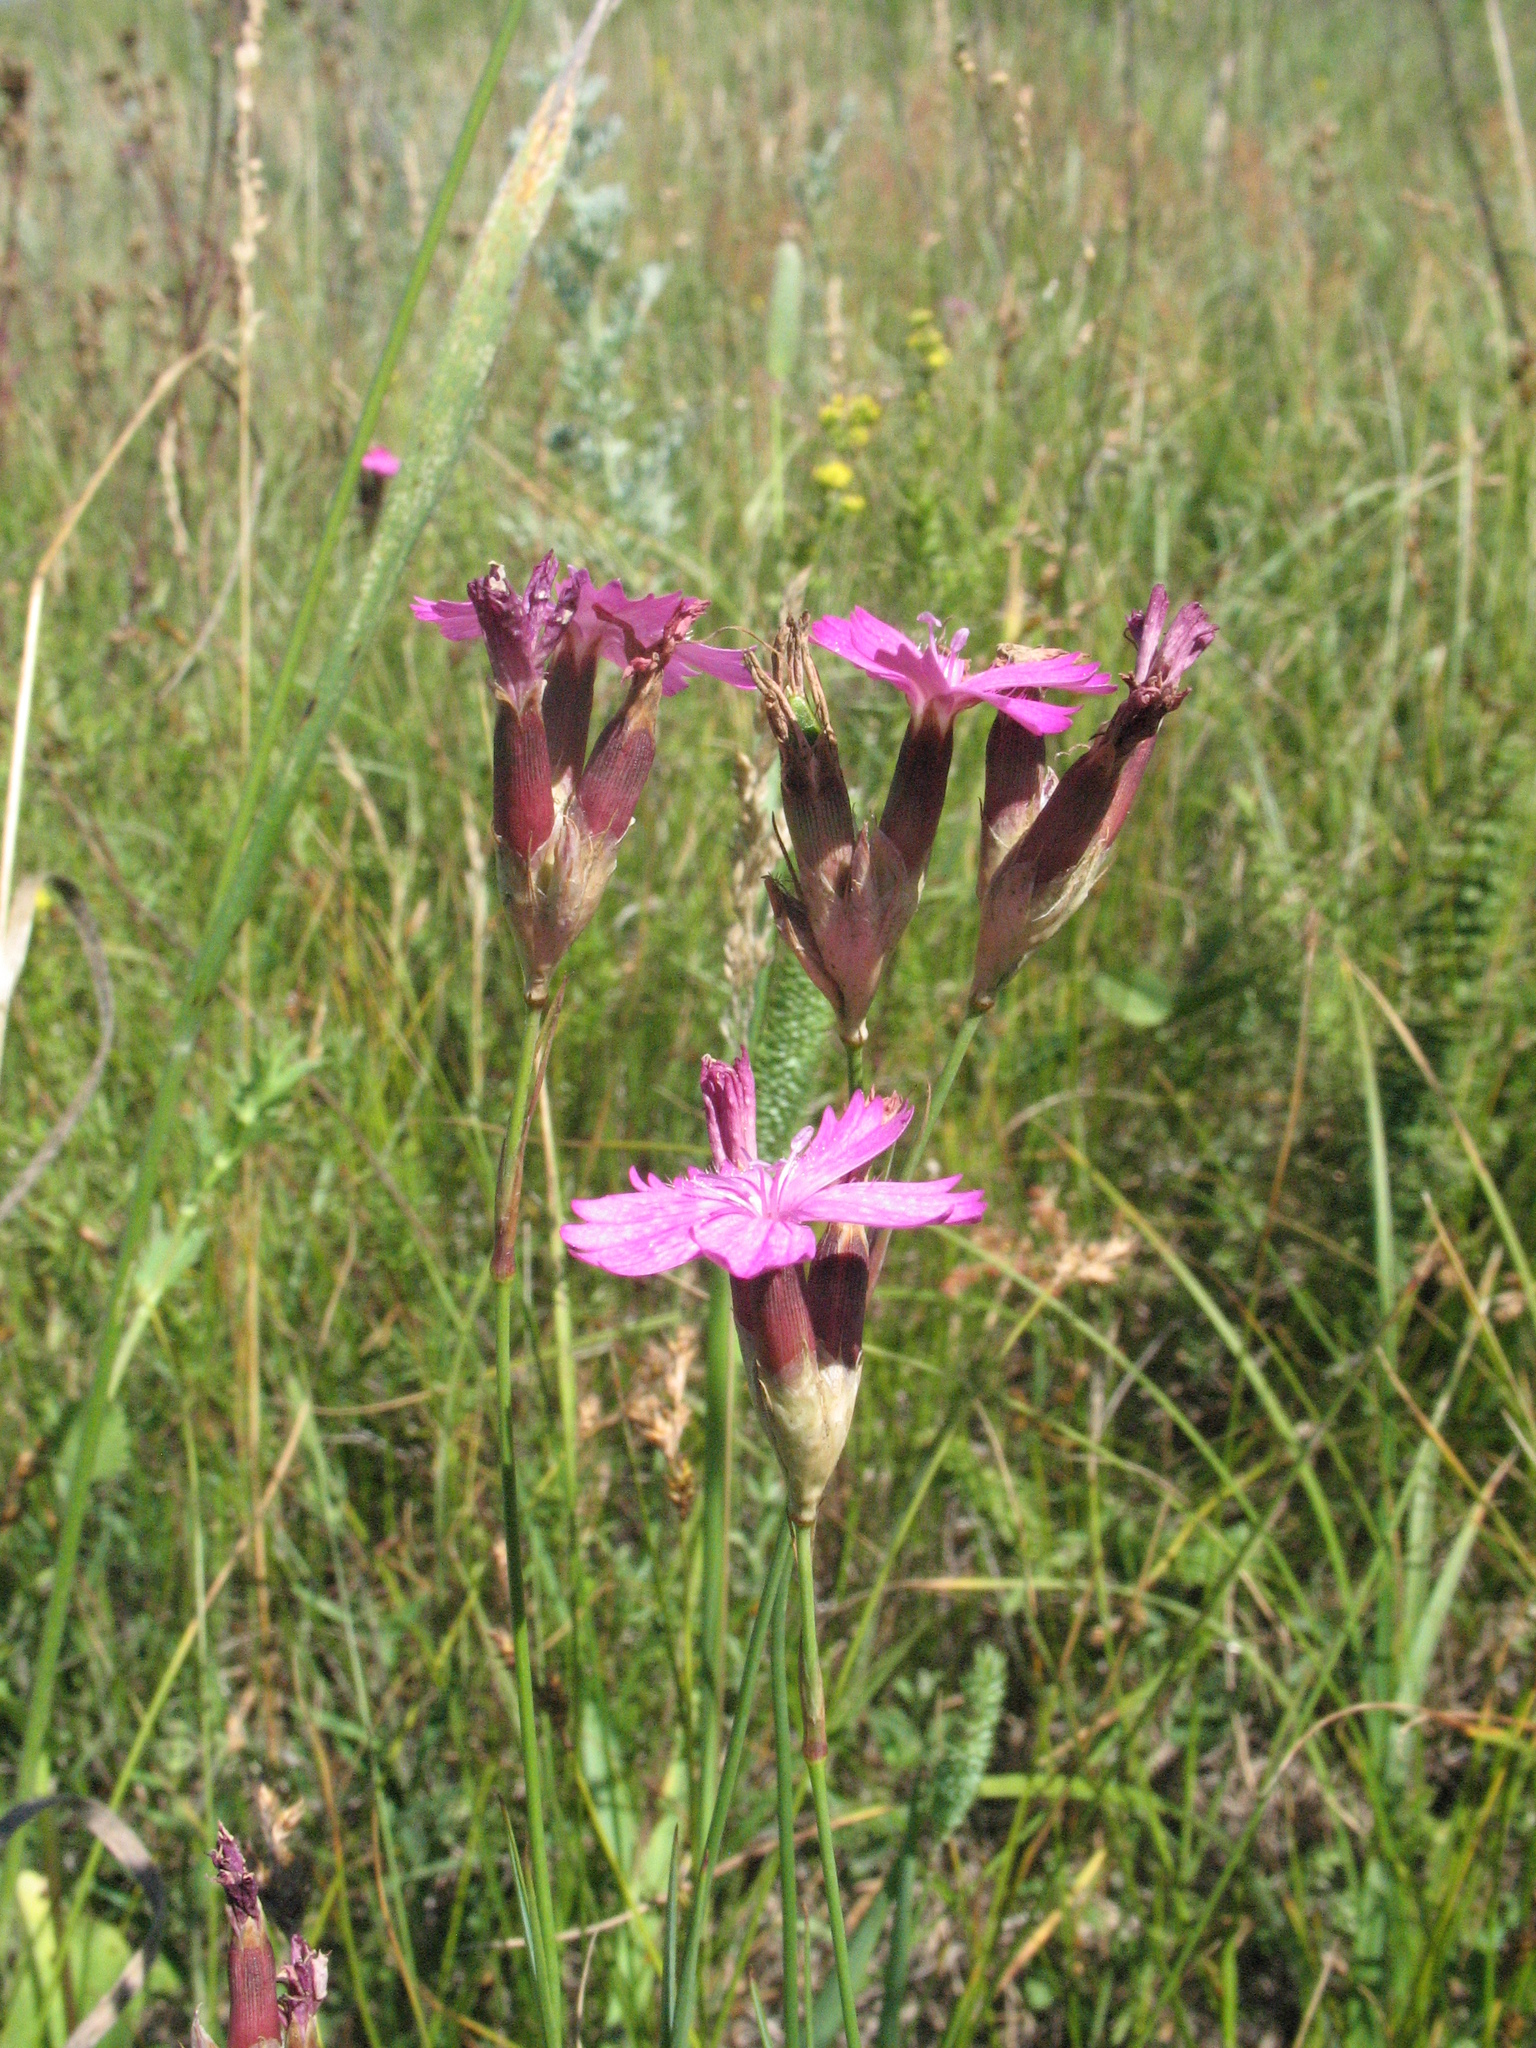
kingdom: Plantae
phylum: Tracheophyta
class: Magnoliopsida
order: Caryophyllales
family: Caryophyllaceae
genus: Dianthus
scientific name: Dianthus borbasii
